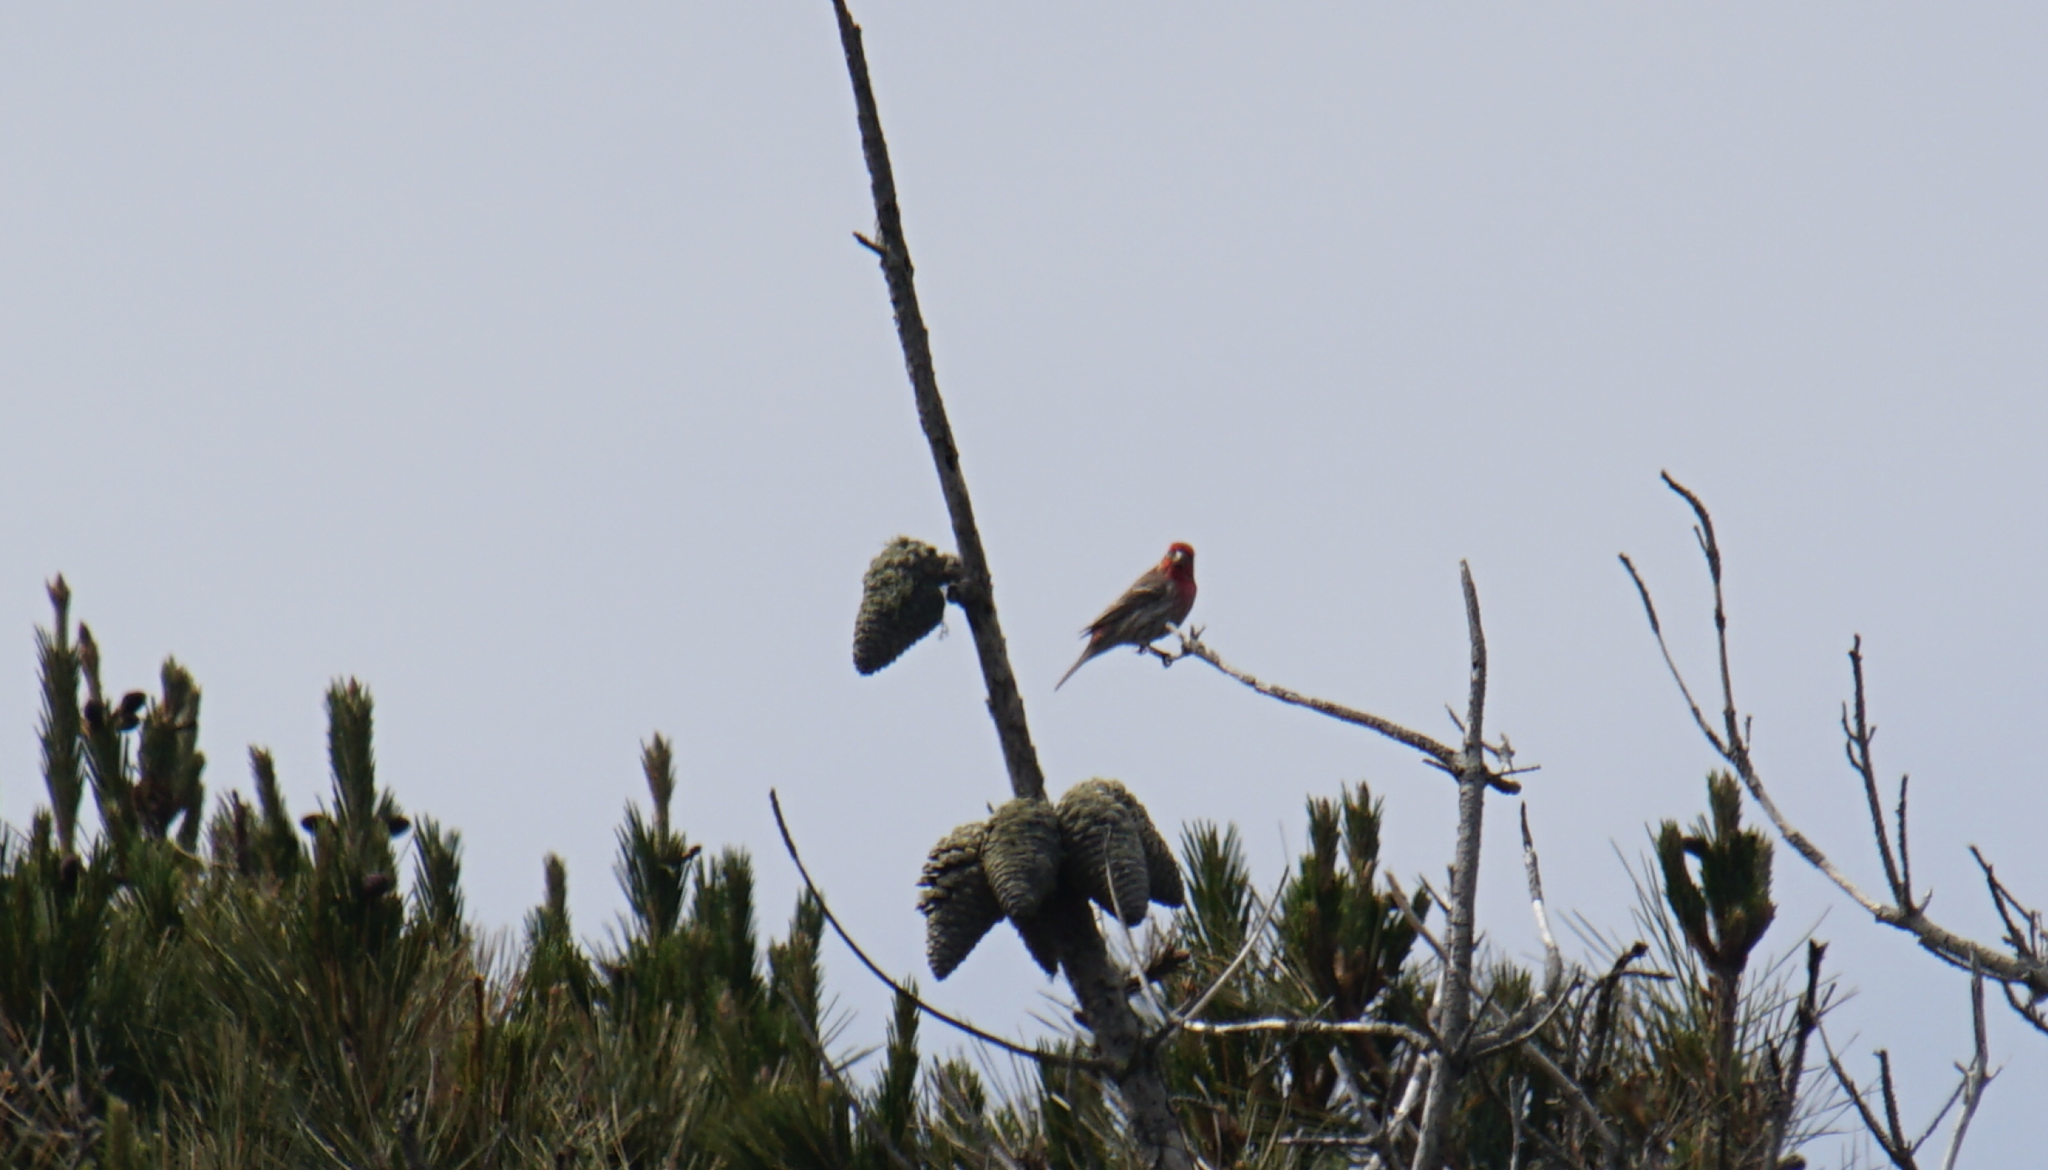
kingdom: Animalia
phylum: Chordata
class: Aves
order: Passeriformes
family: Fringillidae
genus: Haemorhous
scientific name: Haemorhous mexicanus
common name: House finch
